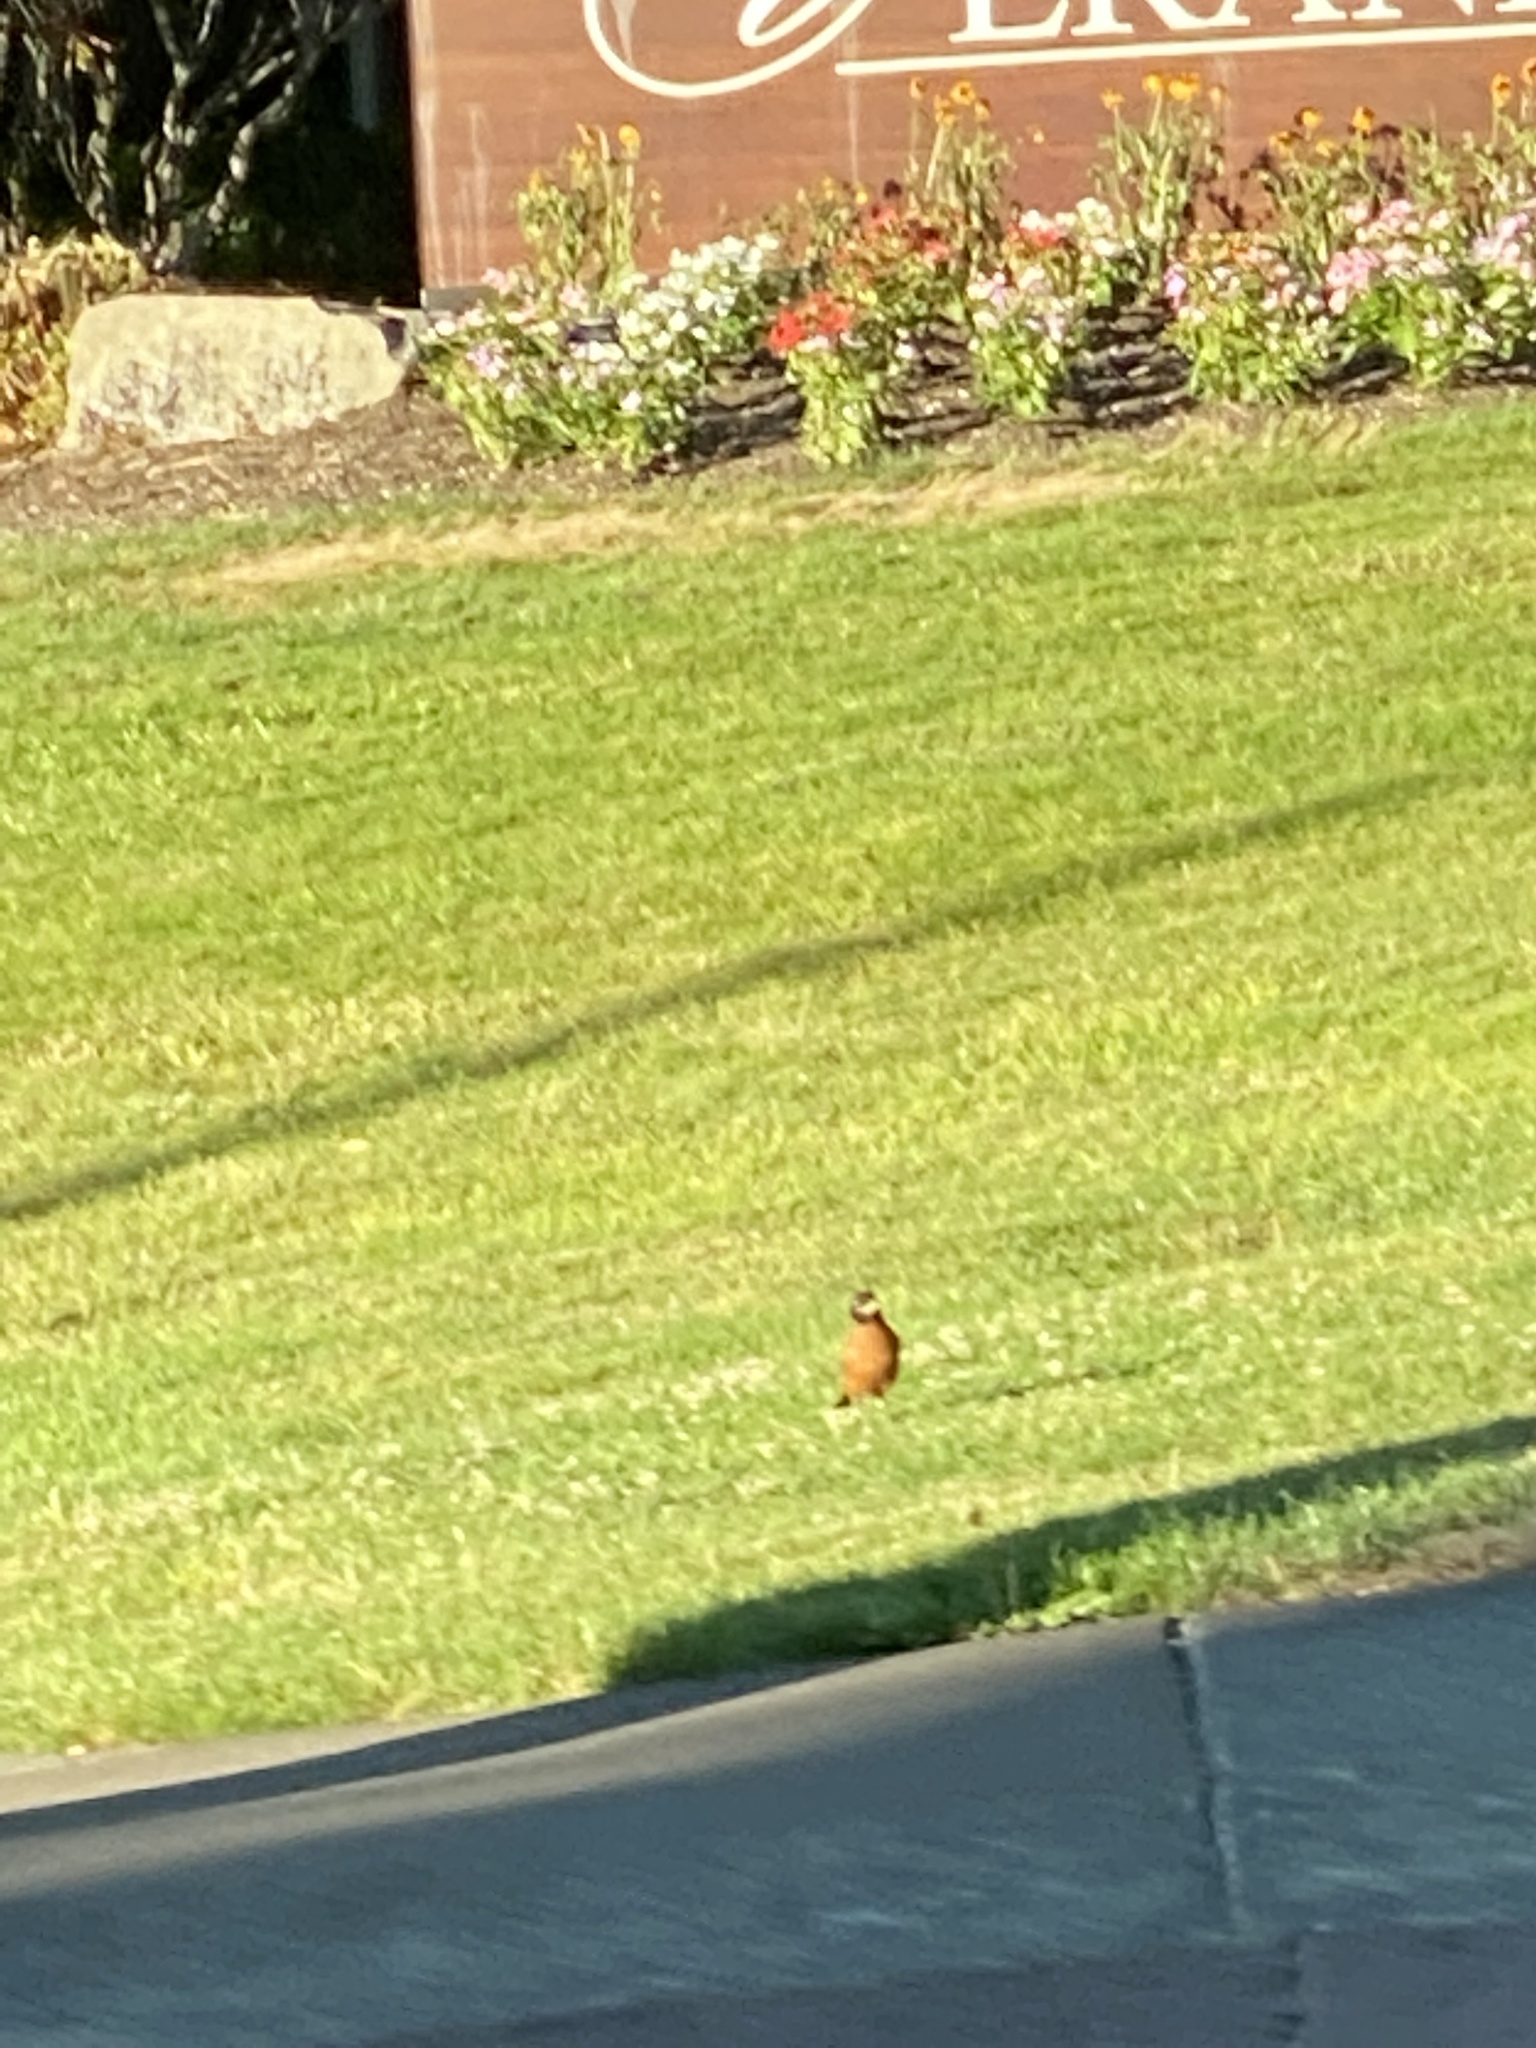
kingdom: Animalia
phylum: Chordata
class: Aves
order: Passeriformes
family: Turdidae
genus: Turdus
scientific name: Turdus migratorius
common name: American robin
